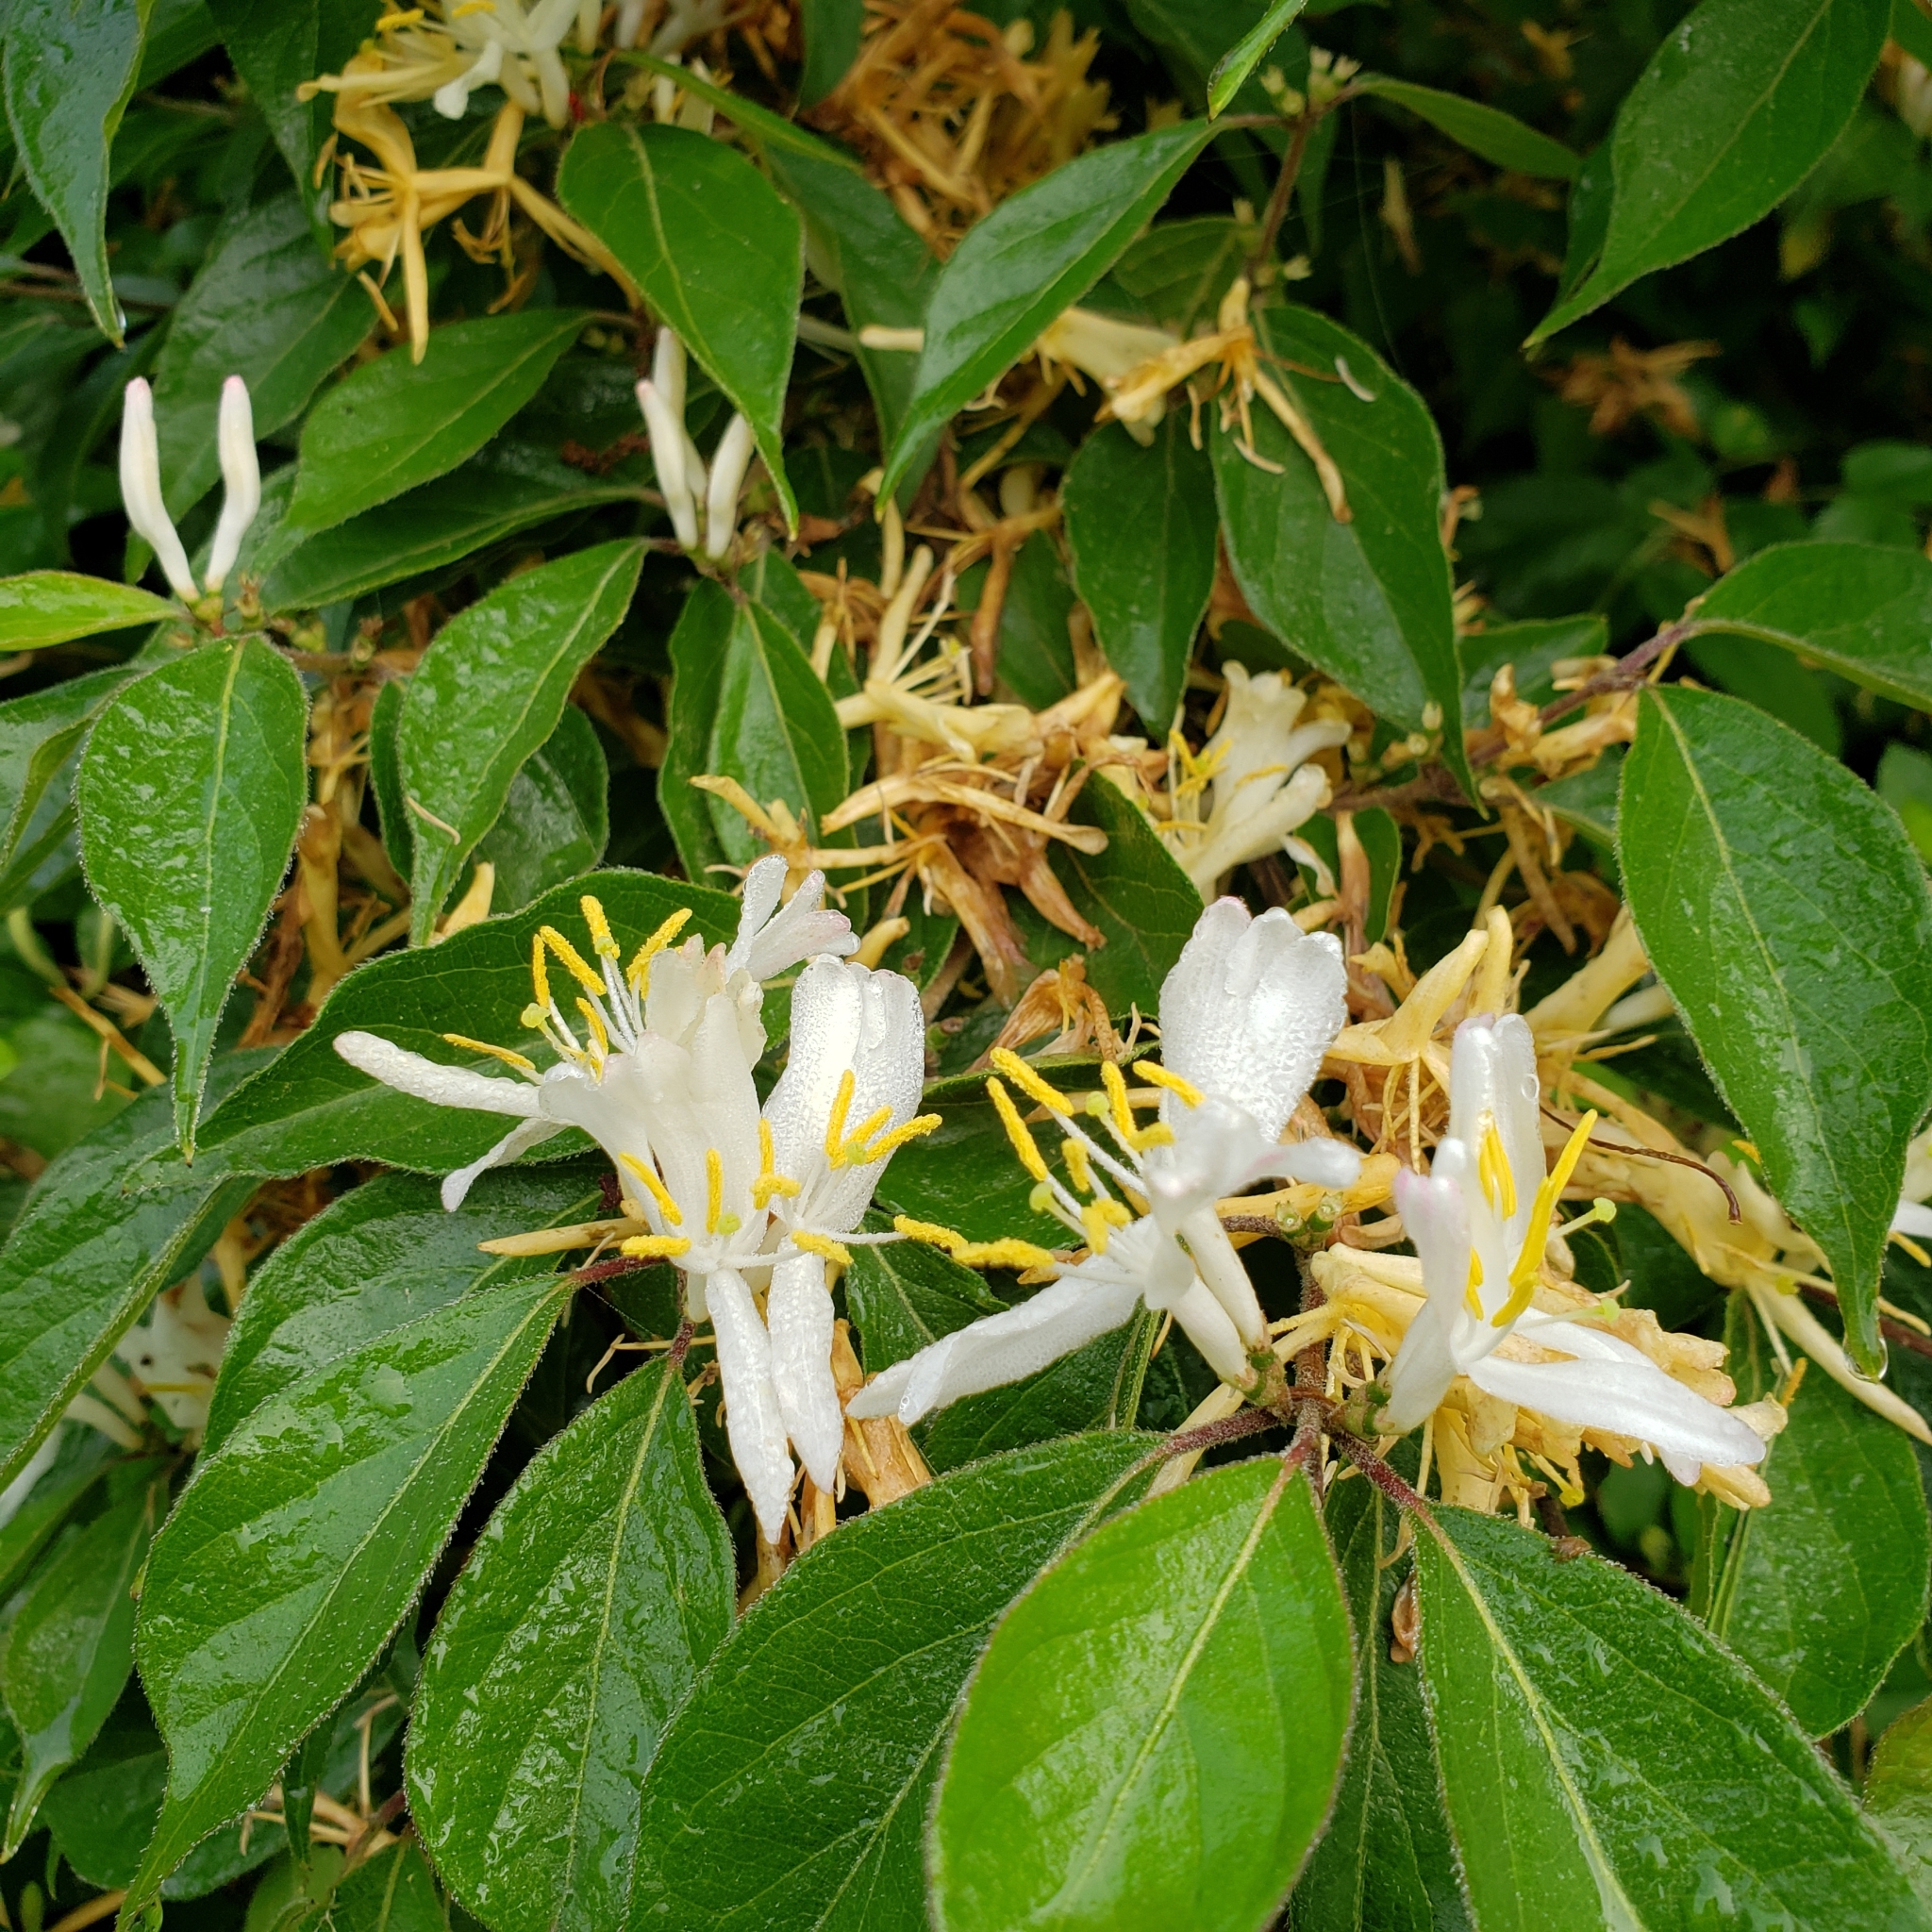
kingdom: Plantae
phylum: Tracheophyta
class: Magnoliopsida
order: Dipsacales
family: Caprifoliaceae
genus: Lonicera
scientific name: Lonicera maackii
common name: Amur honeysuckle
